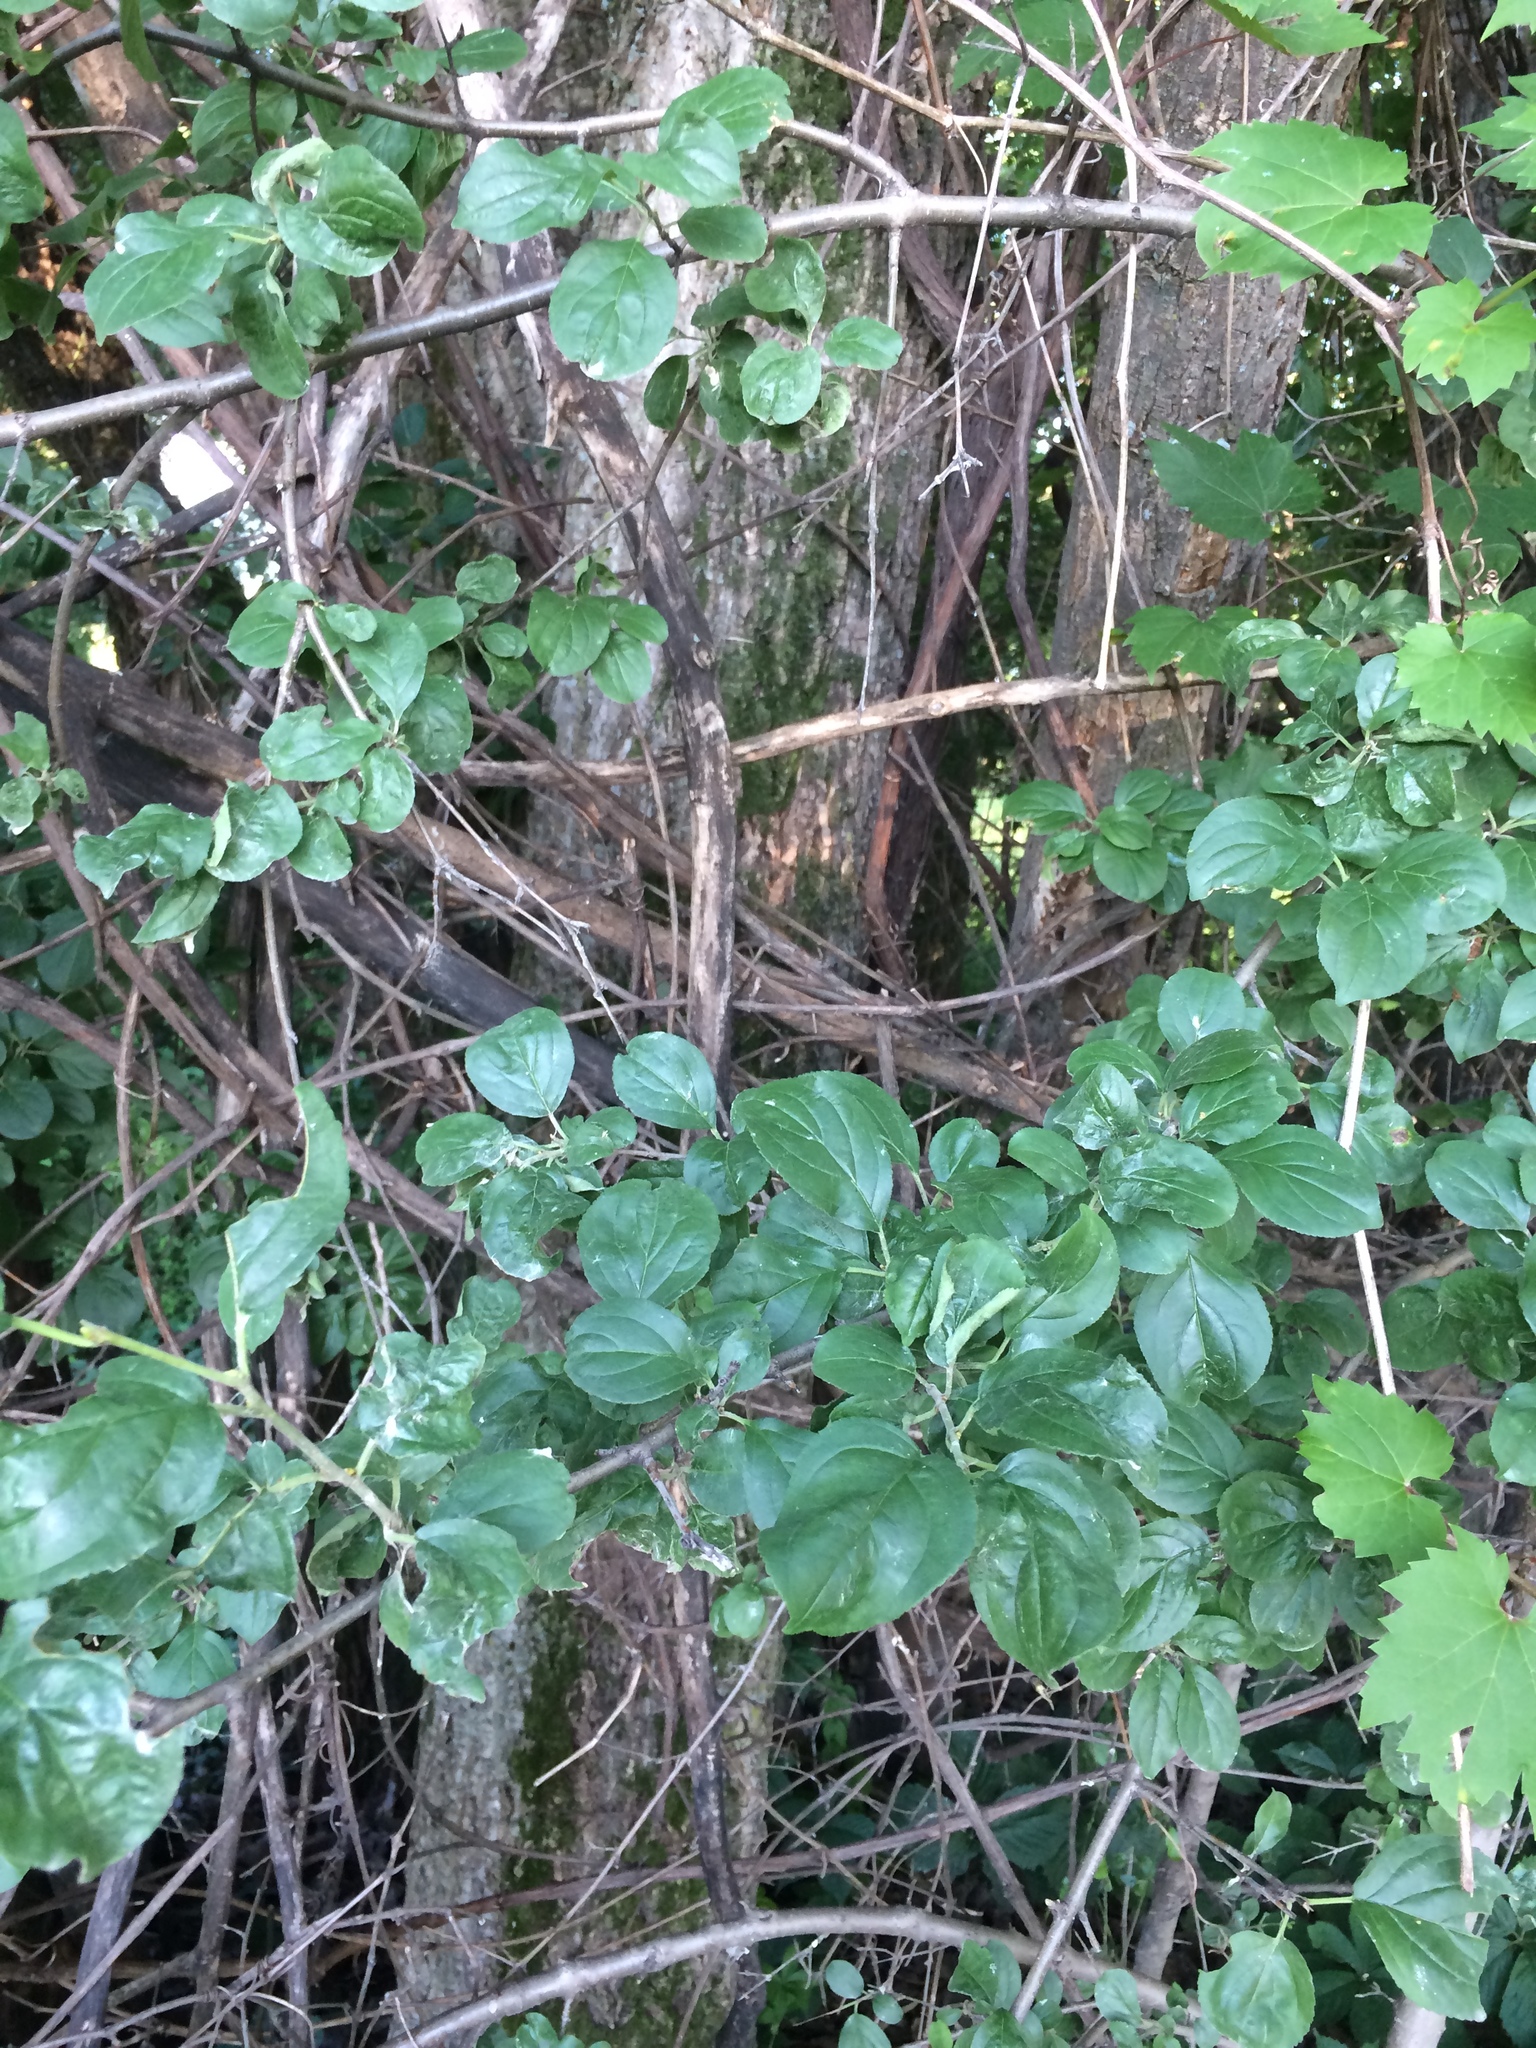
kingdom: Plantae
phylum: Tracheophyta
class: Magnoliopsida
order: Rosales
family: Rhamnaceae
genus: Rhamnus
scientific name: Rhamnus cathartica
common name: Common buckthorn
